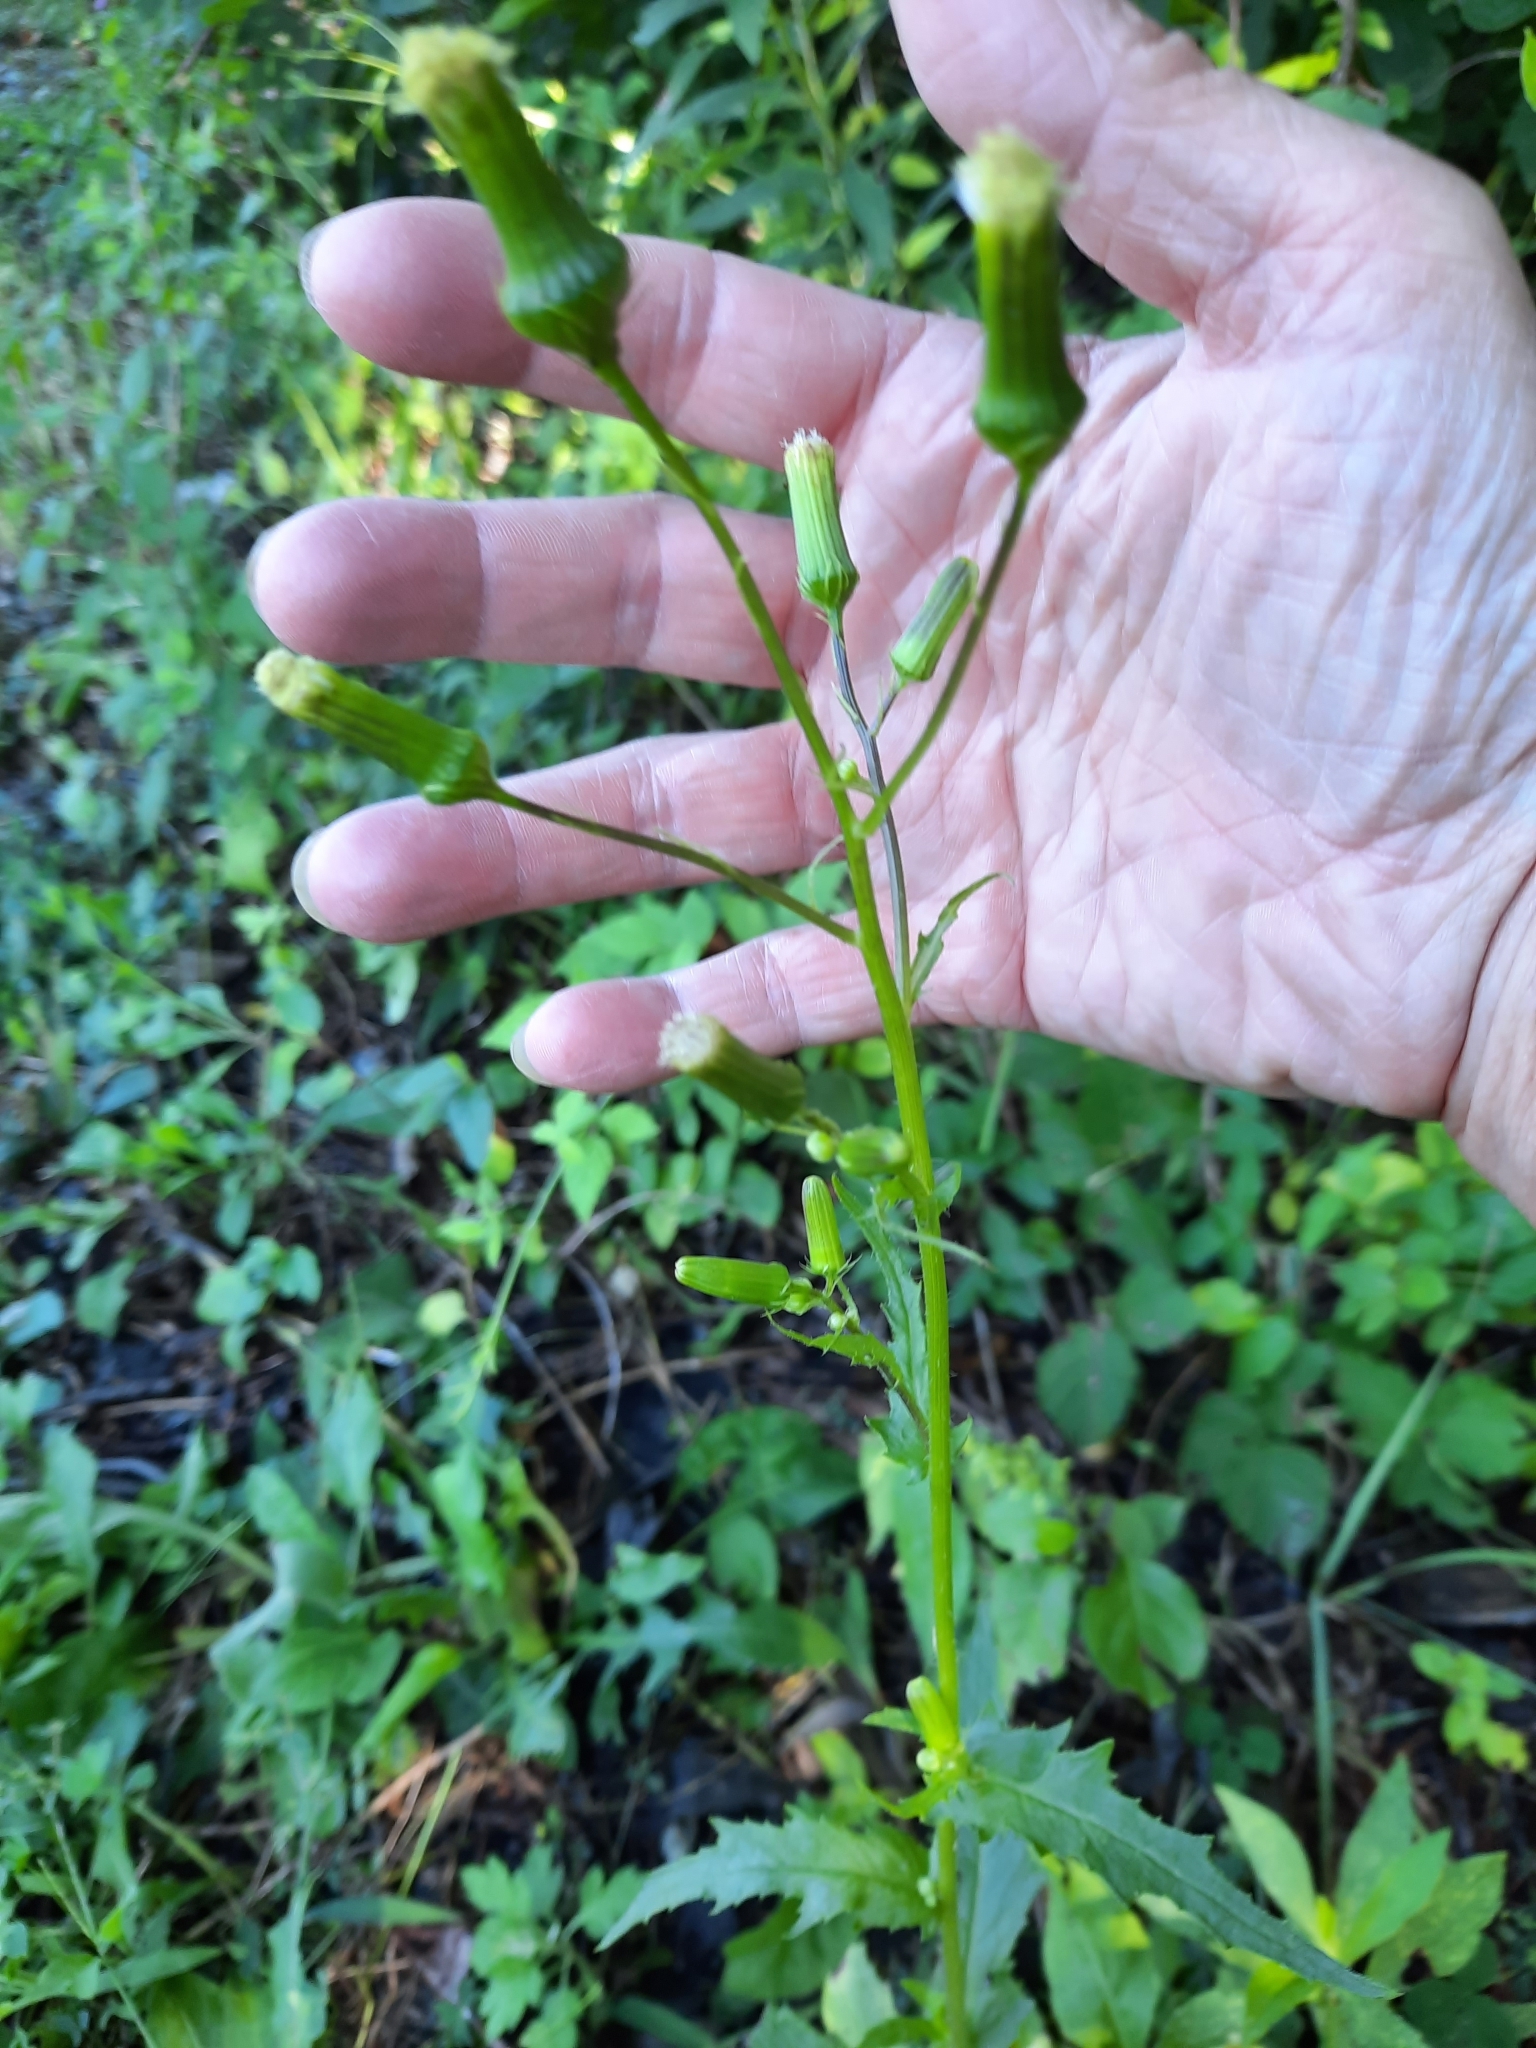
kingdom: Plantae
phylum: Tracheophyta
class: Magnoliopsida
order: Asterales
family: Asteraceae
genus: Erechtites
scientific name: Erechtites hieraciifolius
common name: American burnweed
